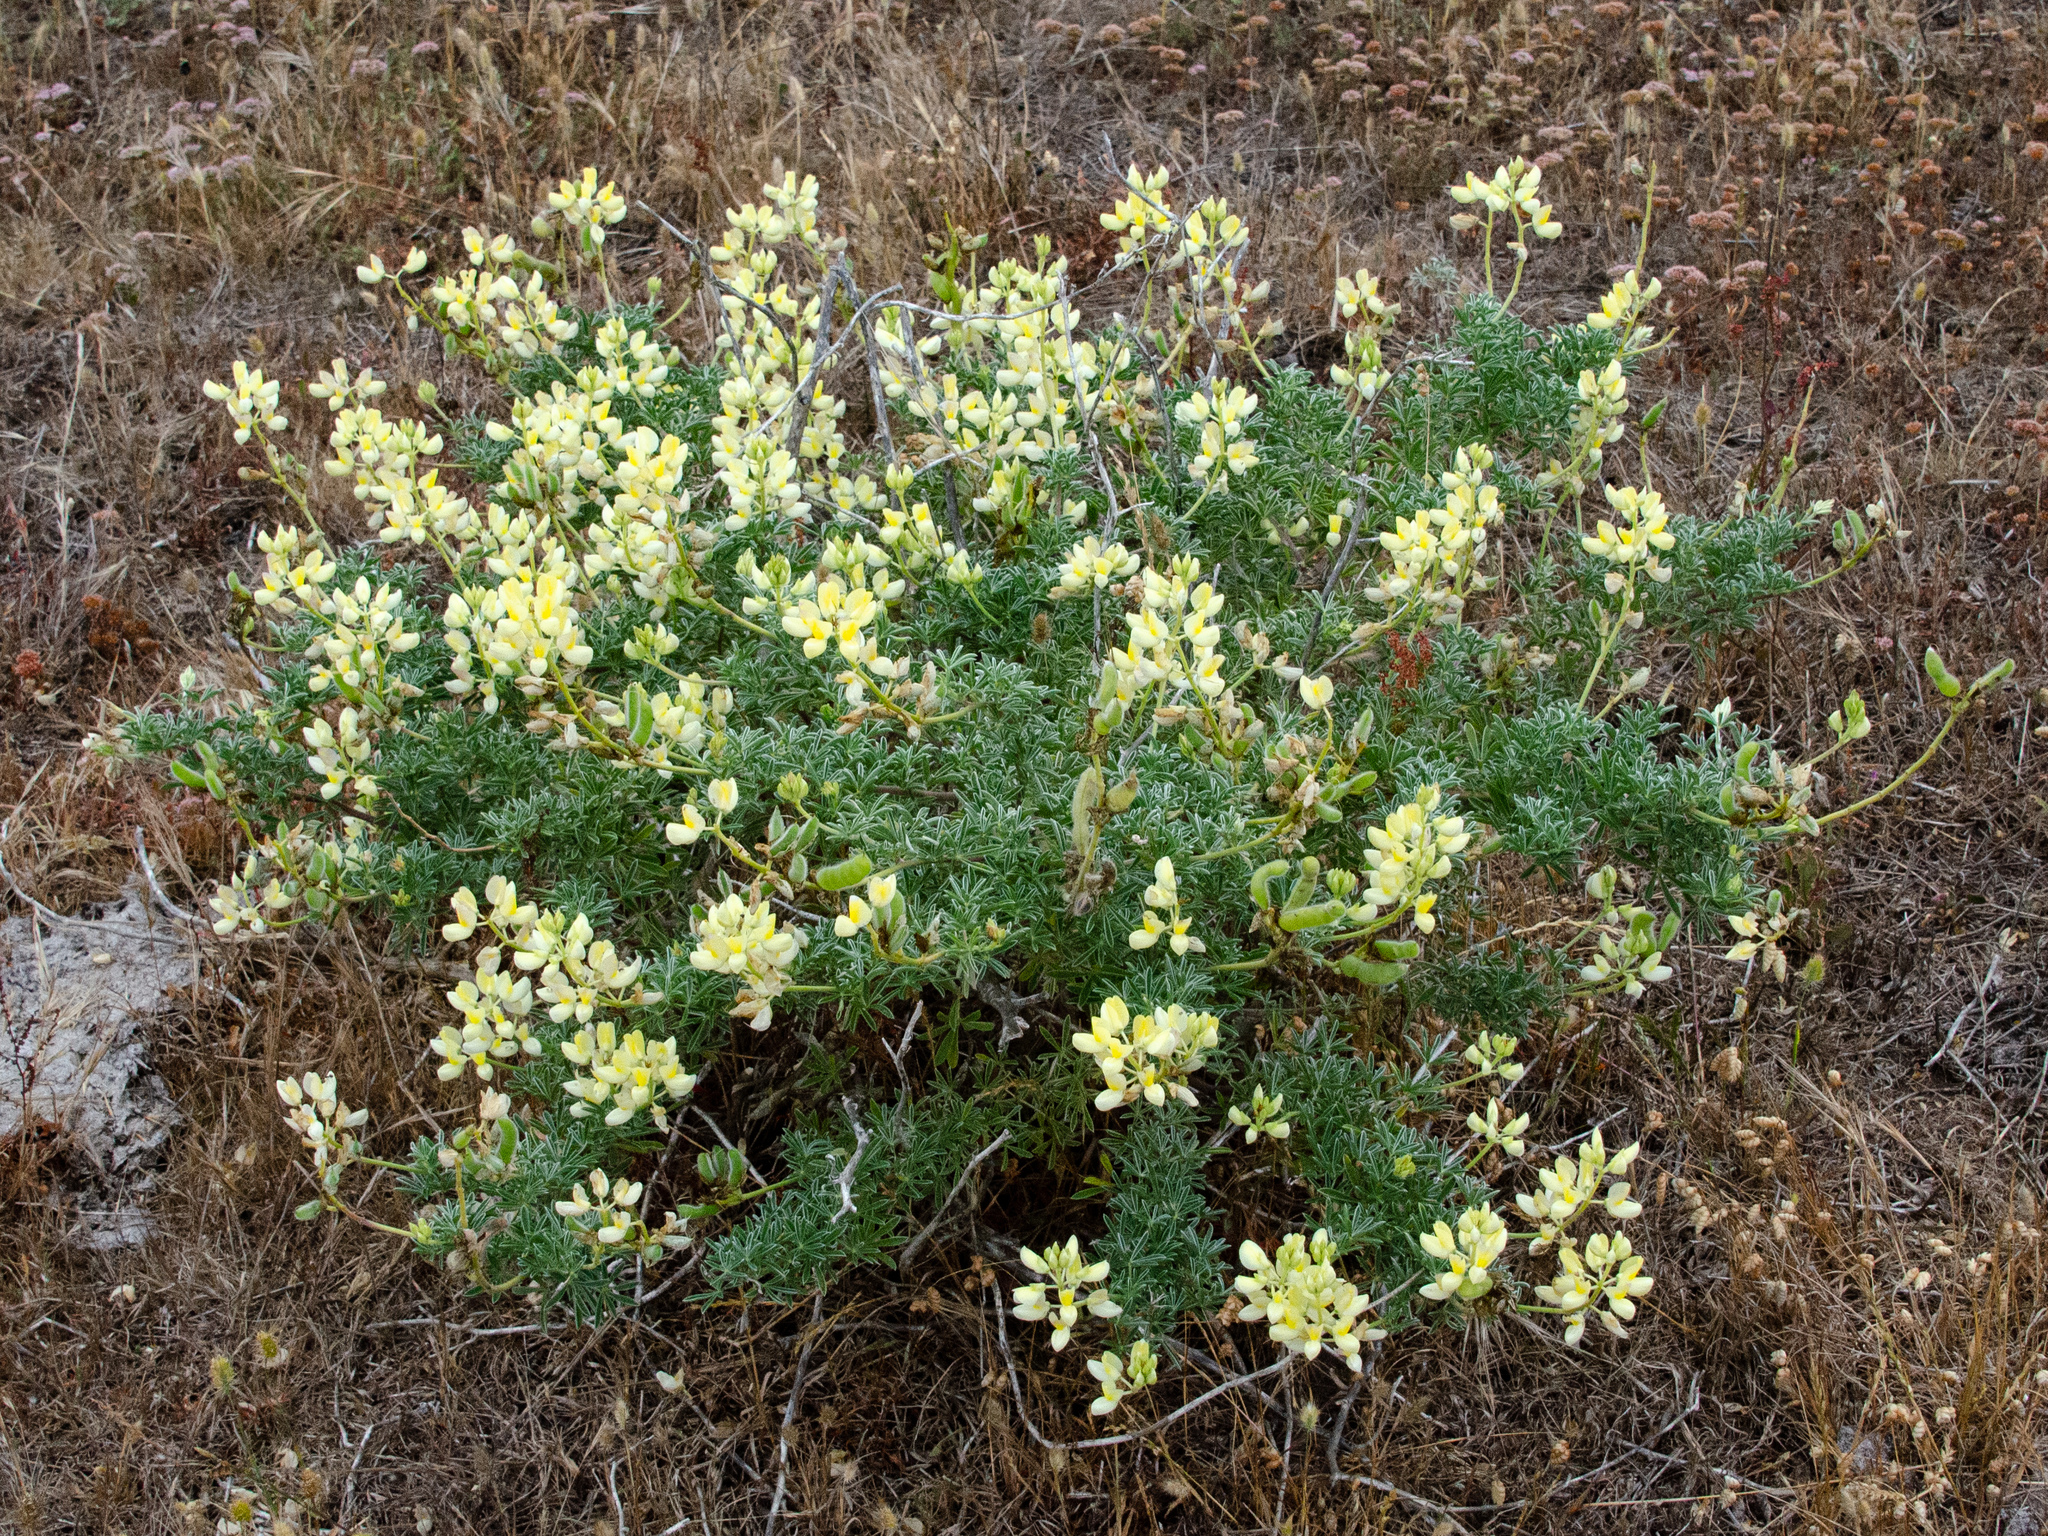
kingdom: Plantae
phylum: Tracheophyta
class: Magnoliopsida
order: Fabales
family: Fabaceae
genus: Lupinus
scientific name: Lupinus arboreus
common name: Yellow bush lupine
